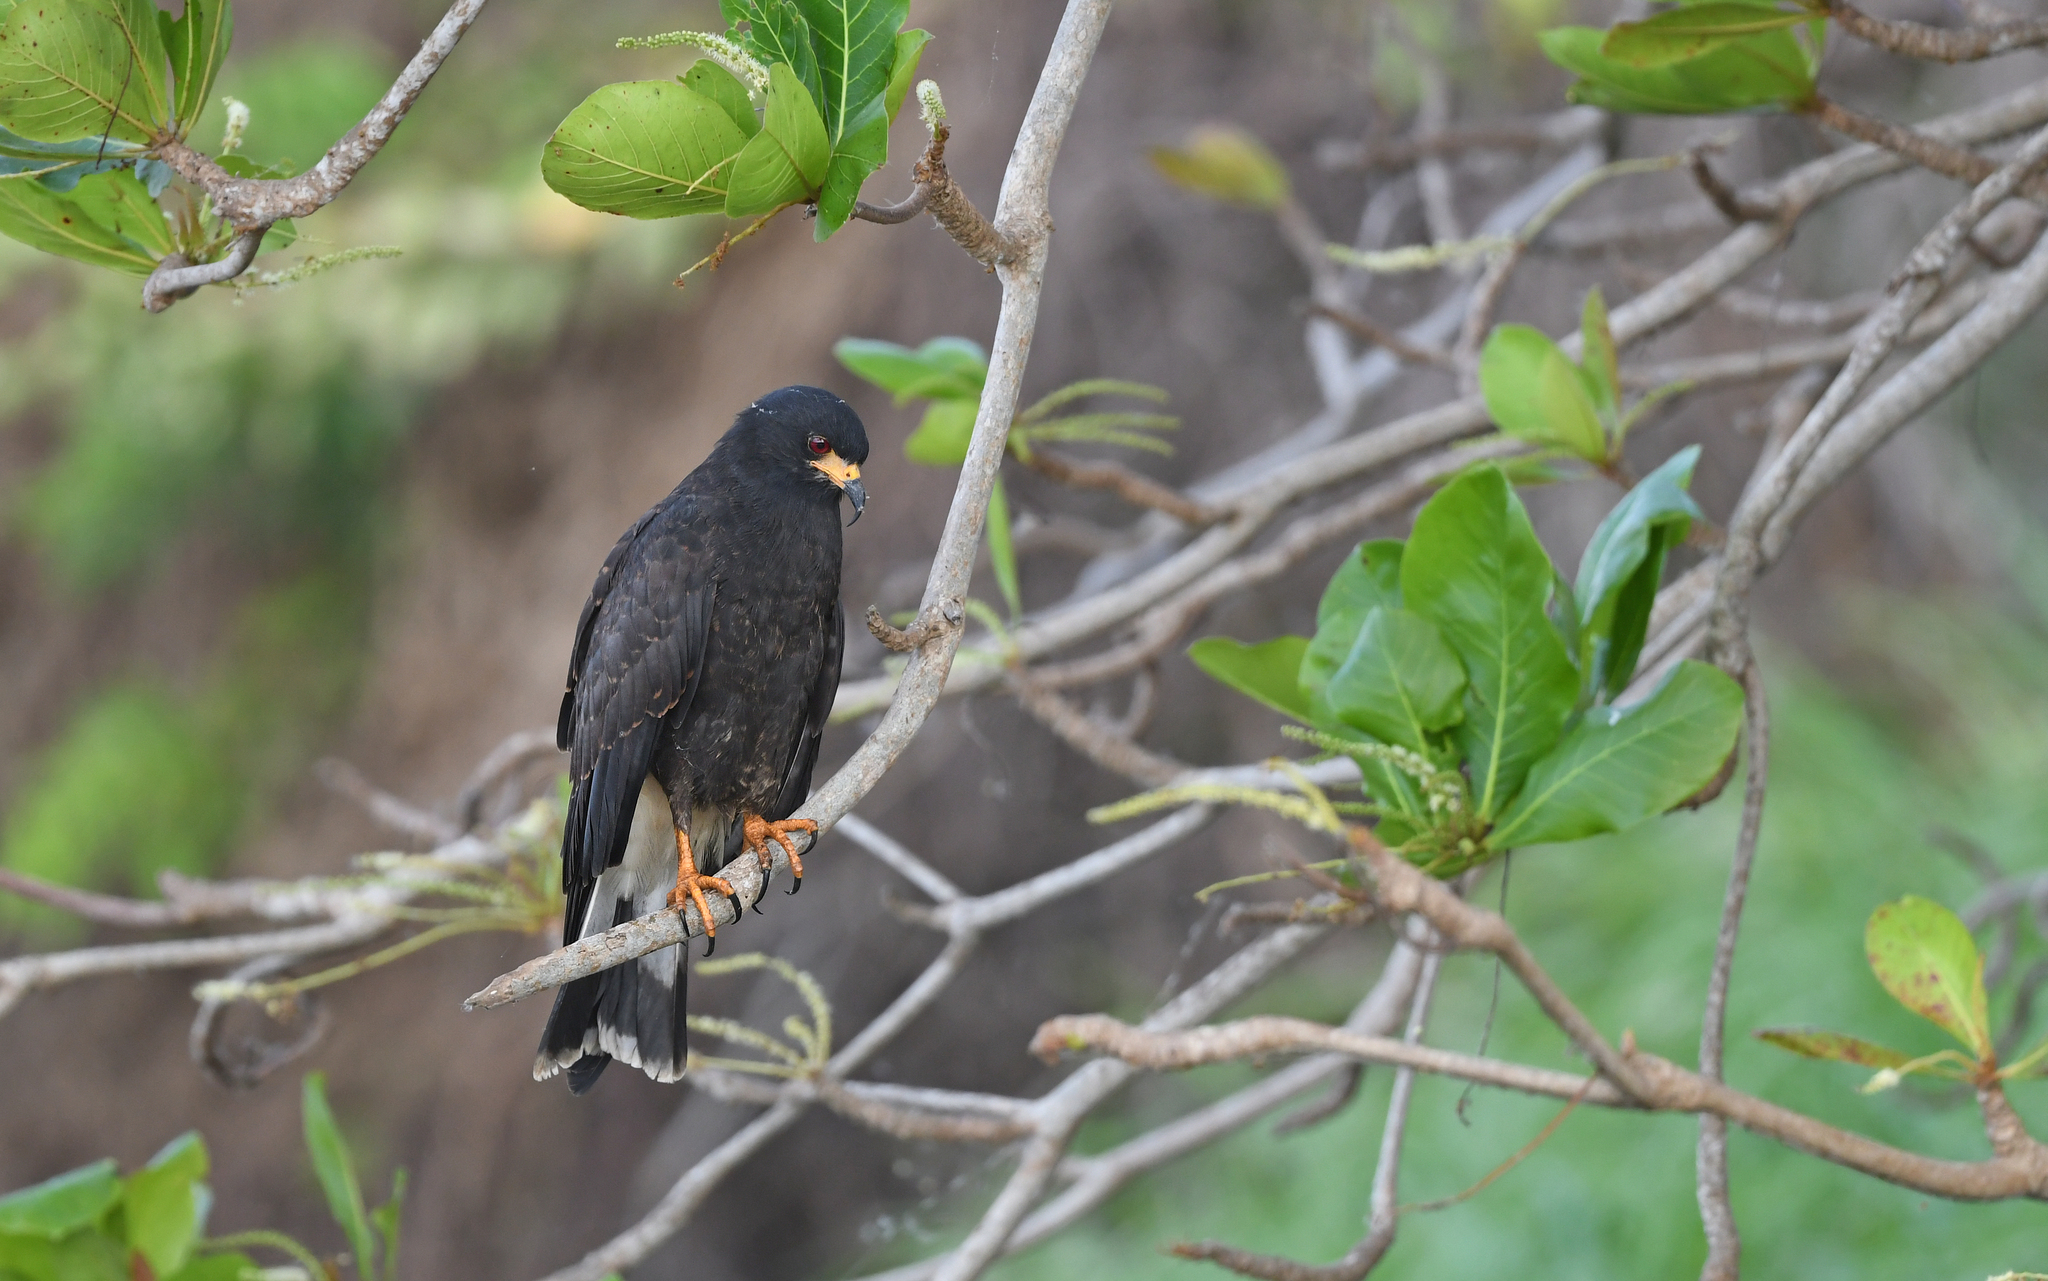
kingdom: Animalia
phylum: Chordata
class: Aves
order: Accipitriformes
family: Accipitridae
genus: Rostrhamus
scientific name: Rostrhamus sociabilis
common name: Snail kite
